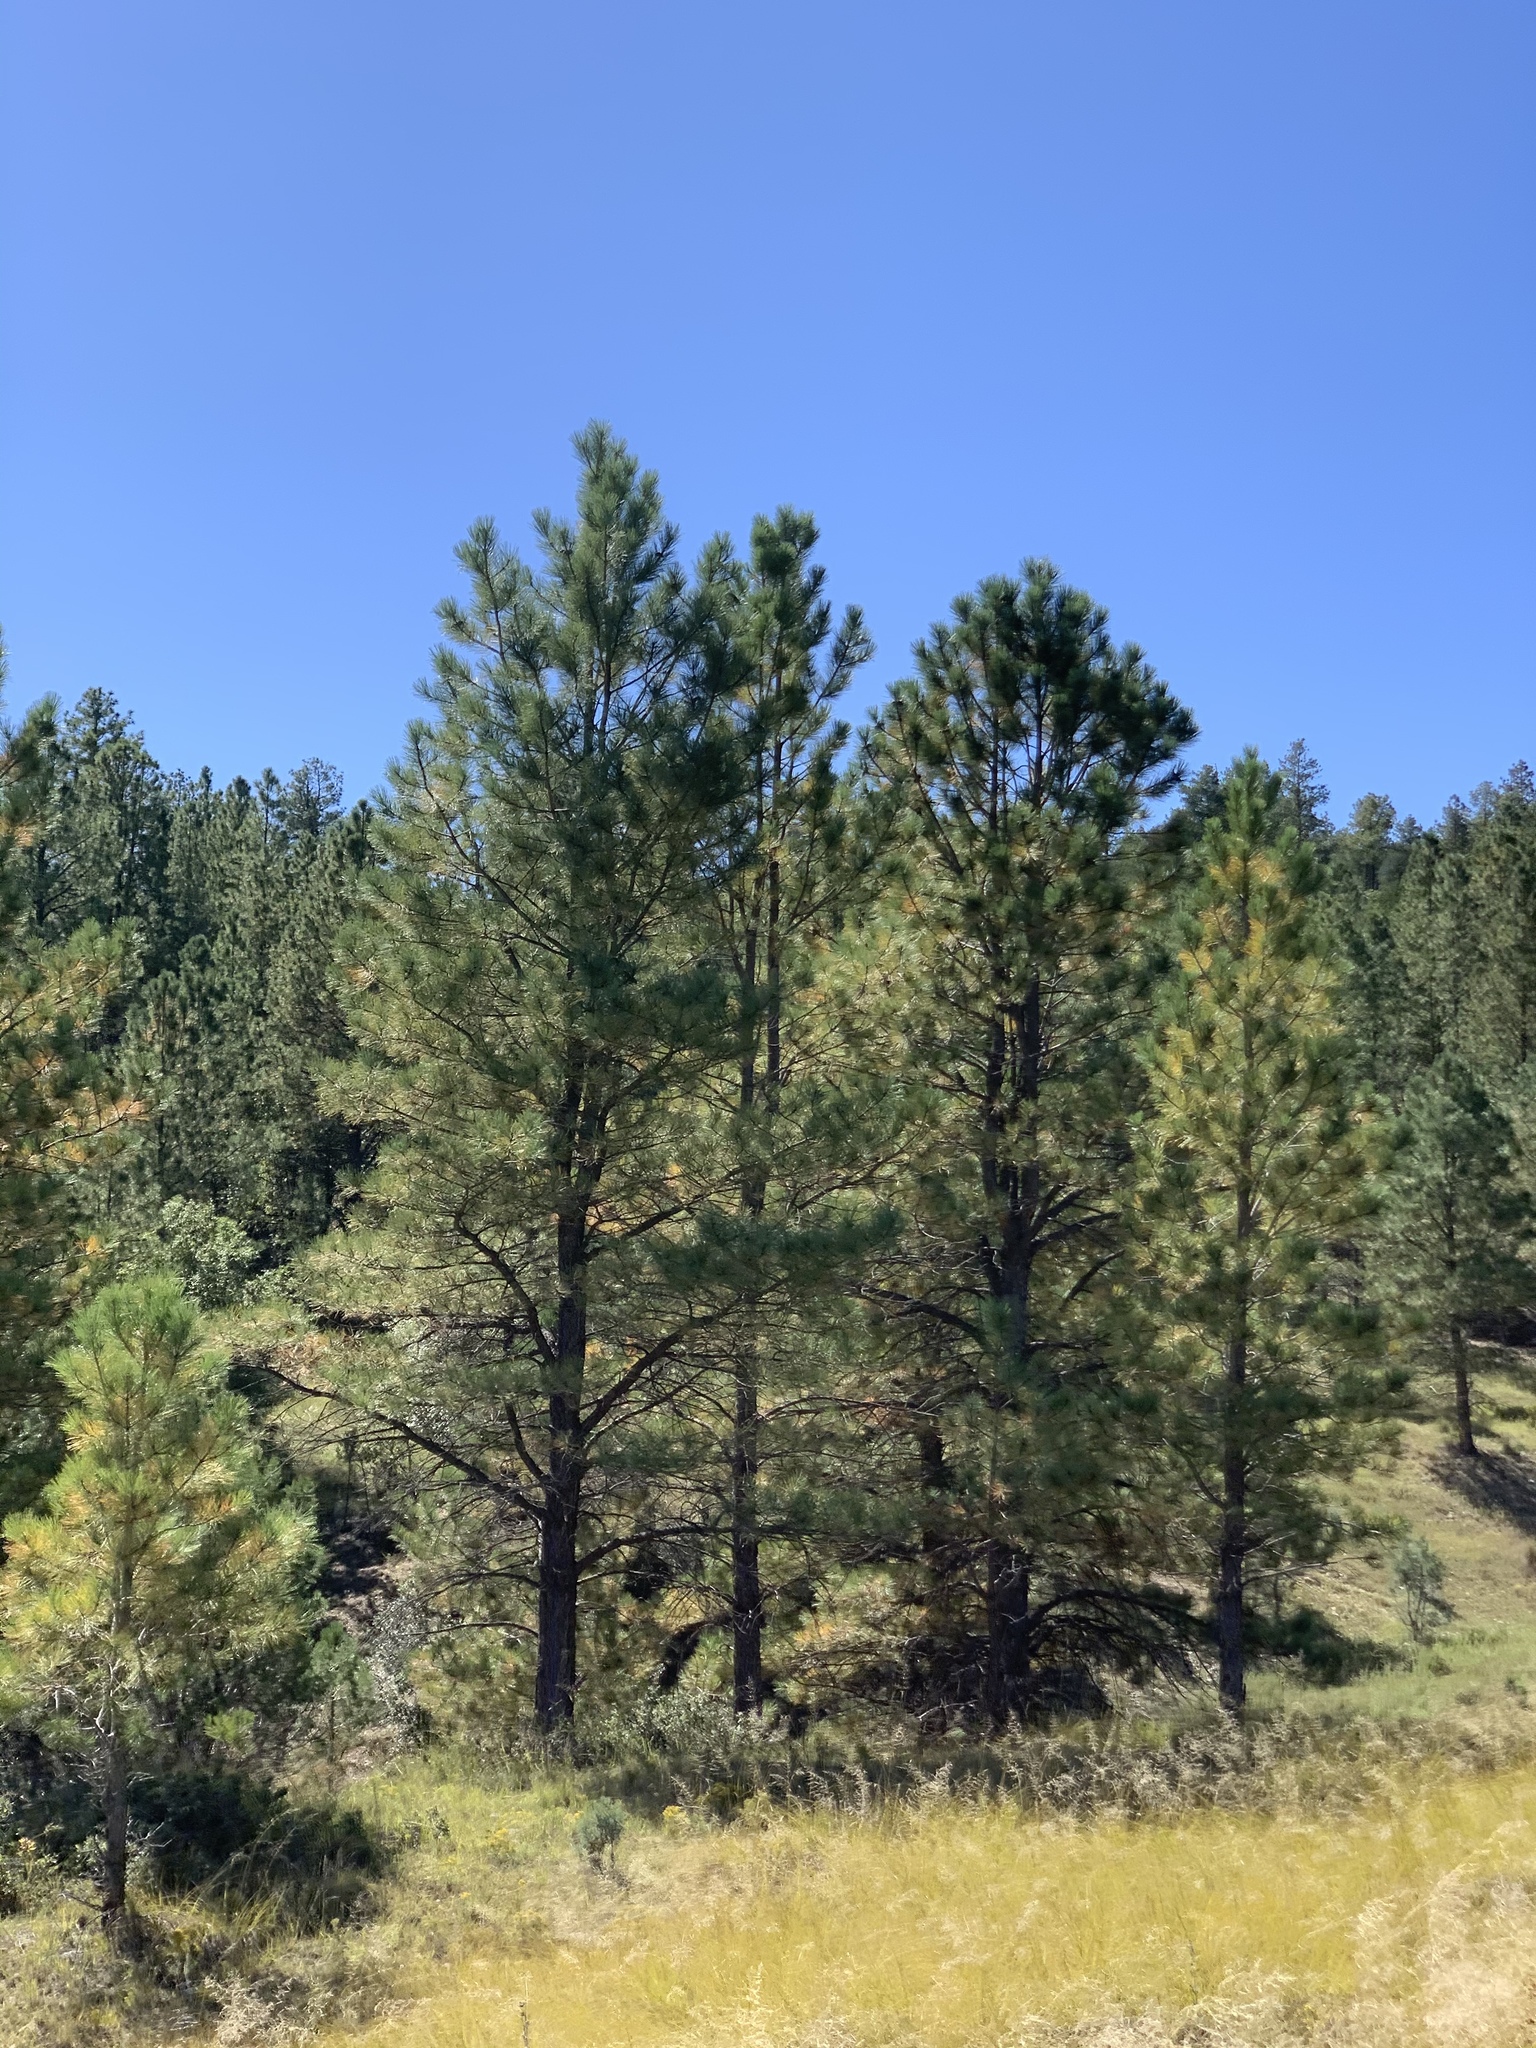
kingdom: Plantae
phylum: Tracheophyta
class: Pinopsida
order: Pinales
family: Pinaceae
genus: Pinus
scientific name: Pinus ponderosa
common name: Western yellow-pine
